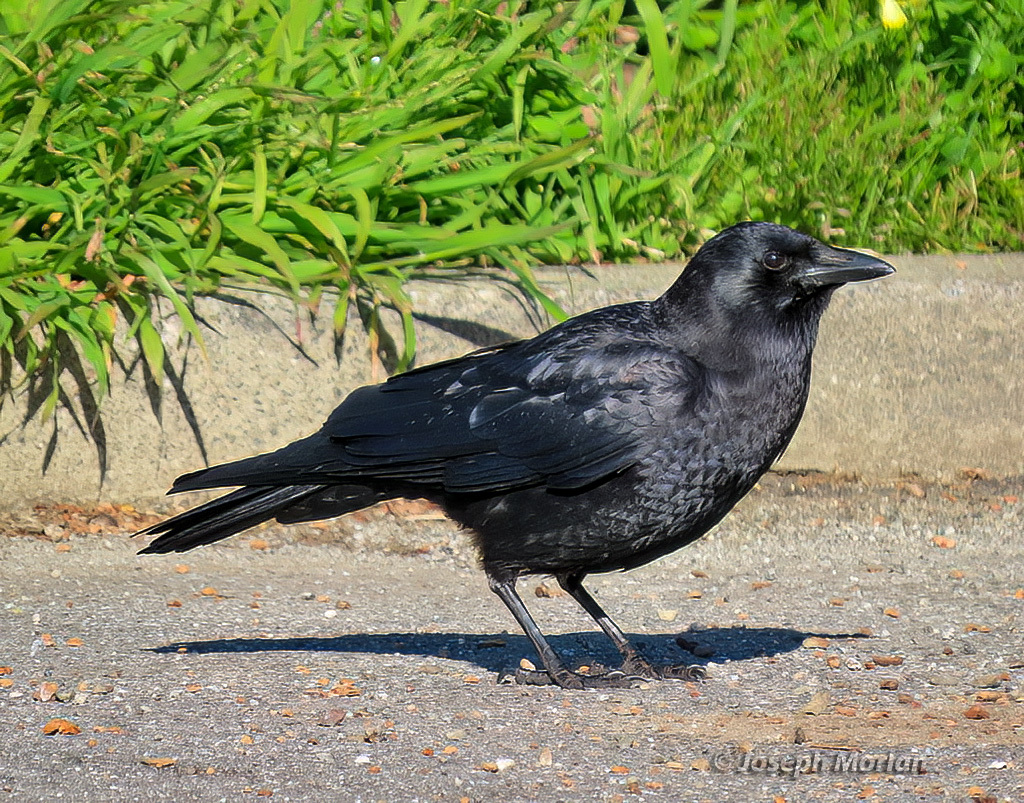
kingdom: Animalia
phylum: Chordata
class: Aves
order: Passeriformes
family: Corvidae
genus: Corvus
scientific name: Corvus brachyrhynchos
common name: American crow
